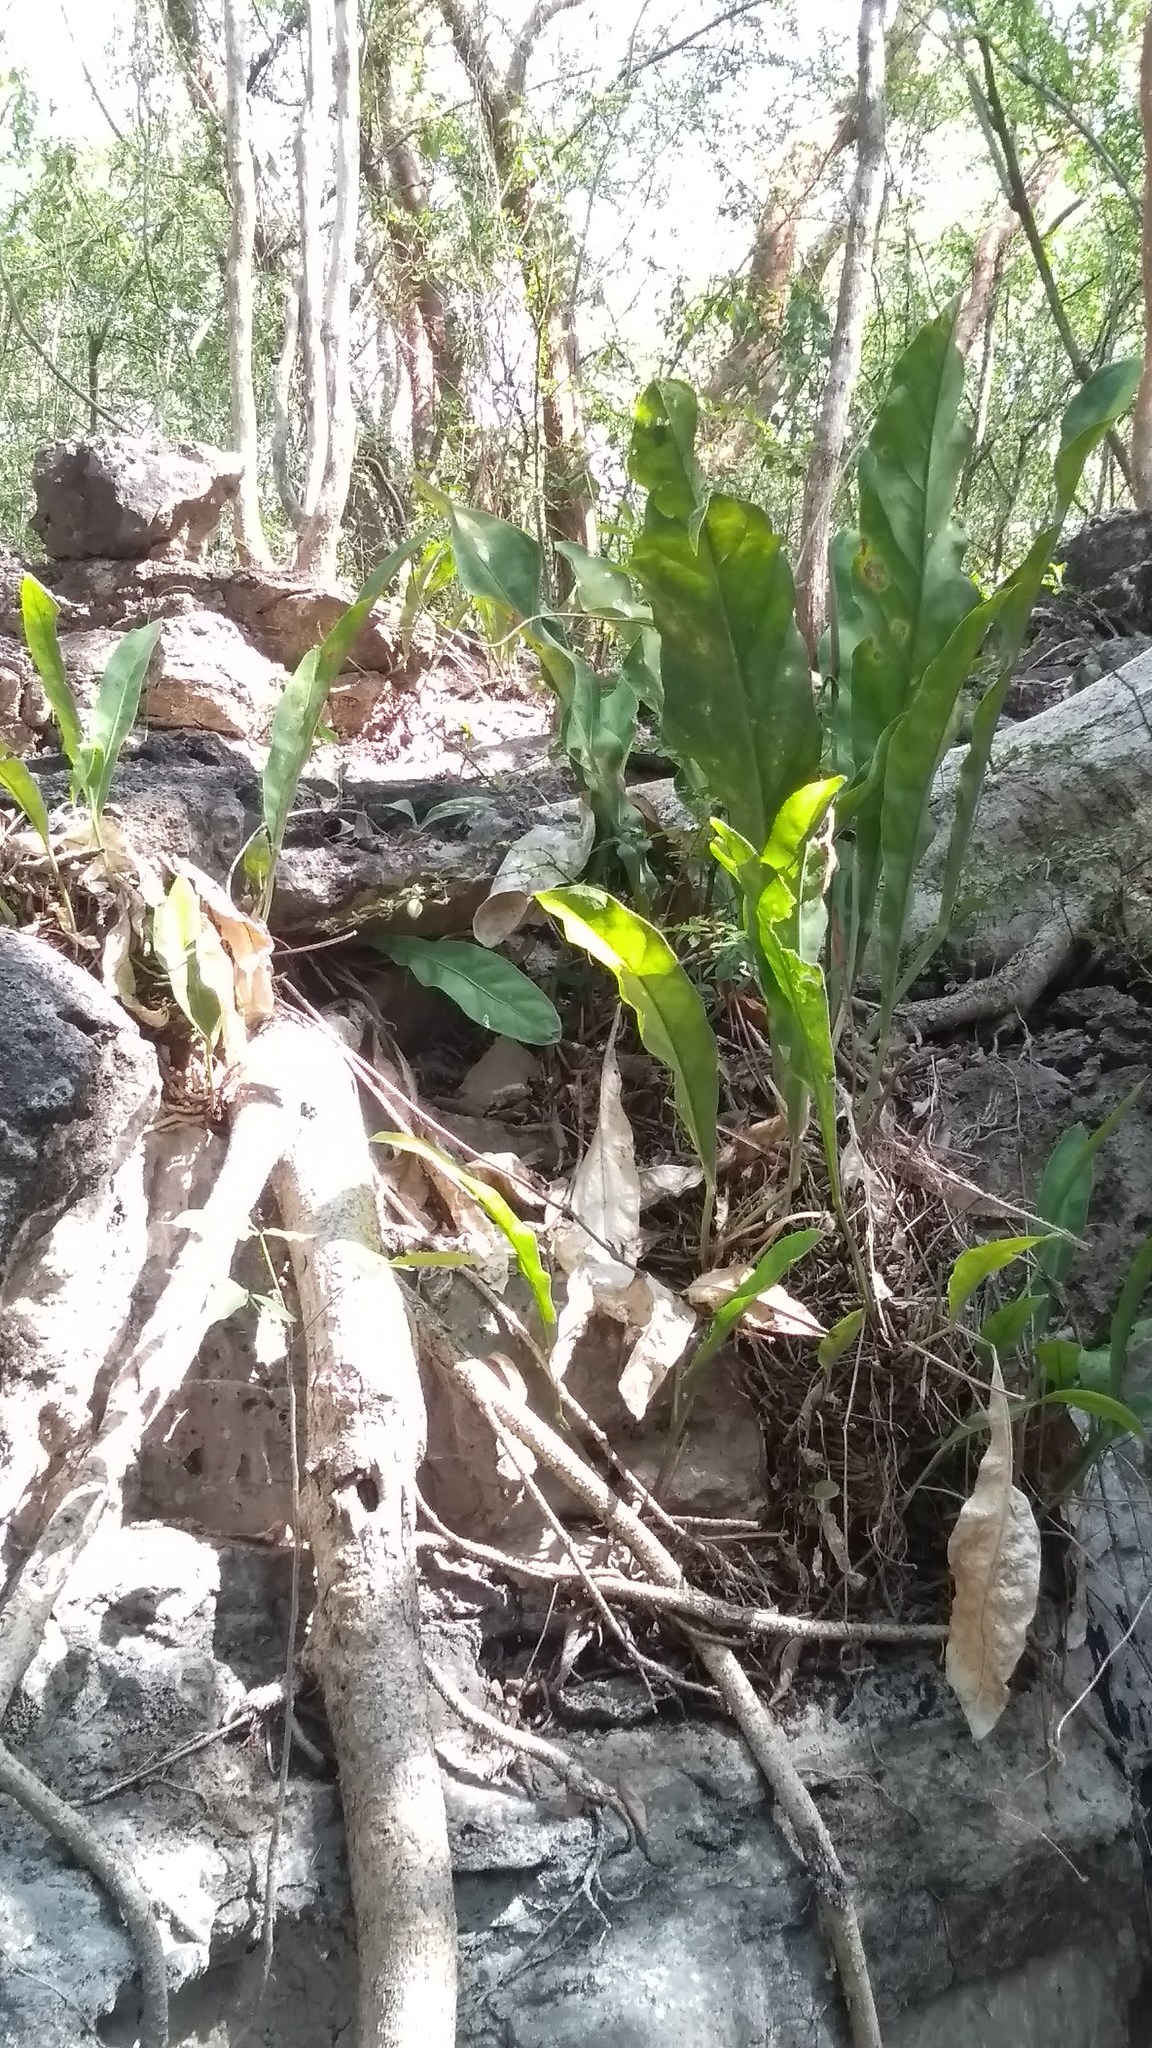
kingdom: Plantae
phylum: Tracheophyta
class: Liliopsida
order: Alismatales
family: Araceae
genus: Anthurium
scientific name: Anthurium schlechtendalii
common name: Laceleaf
